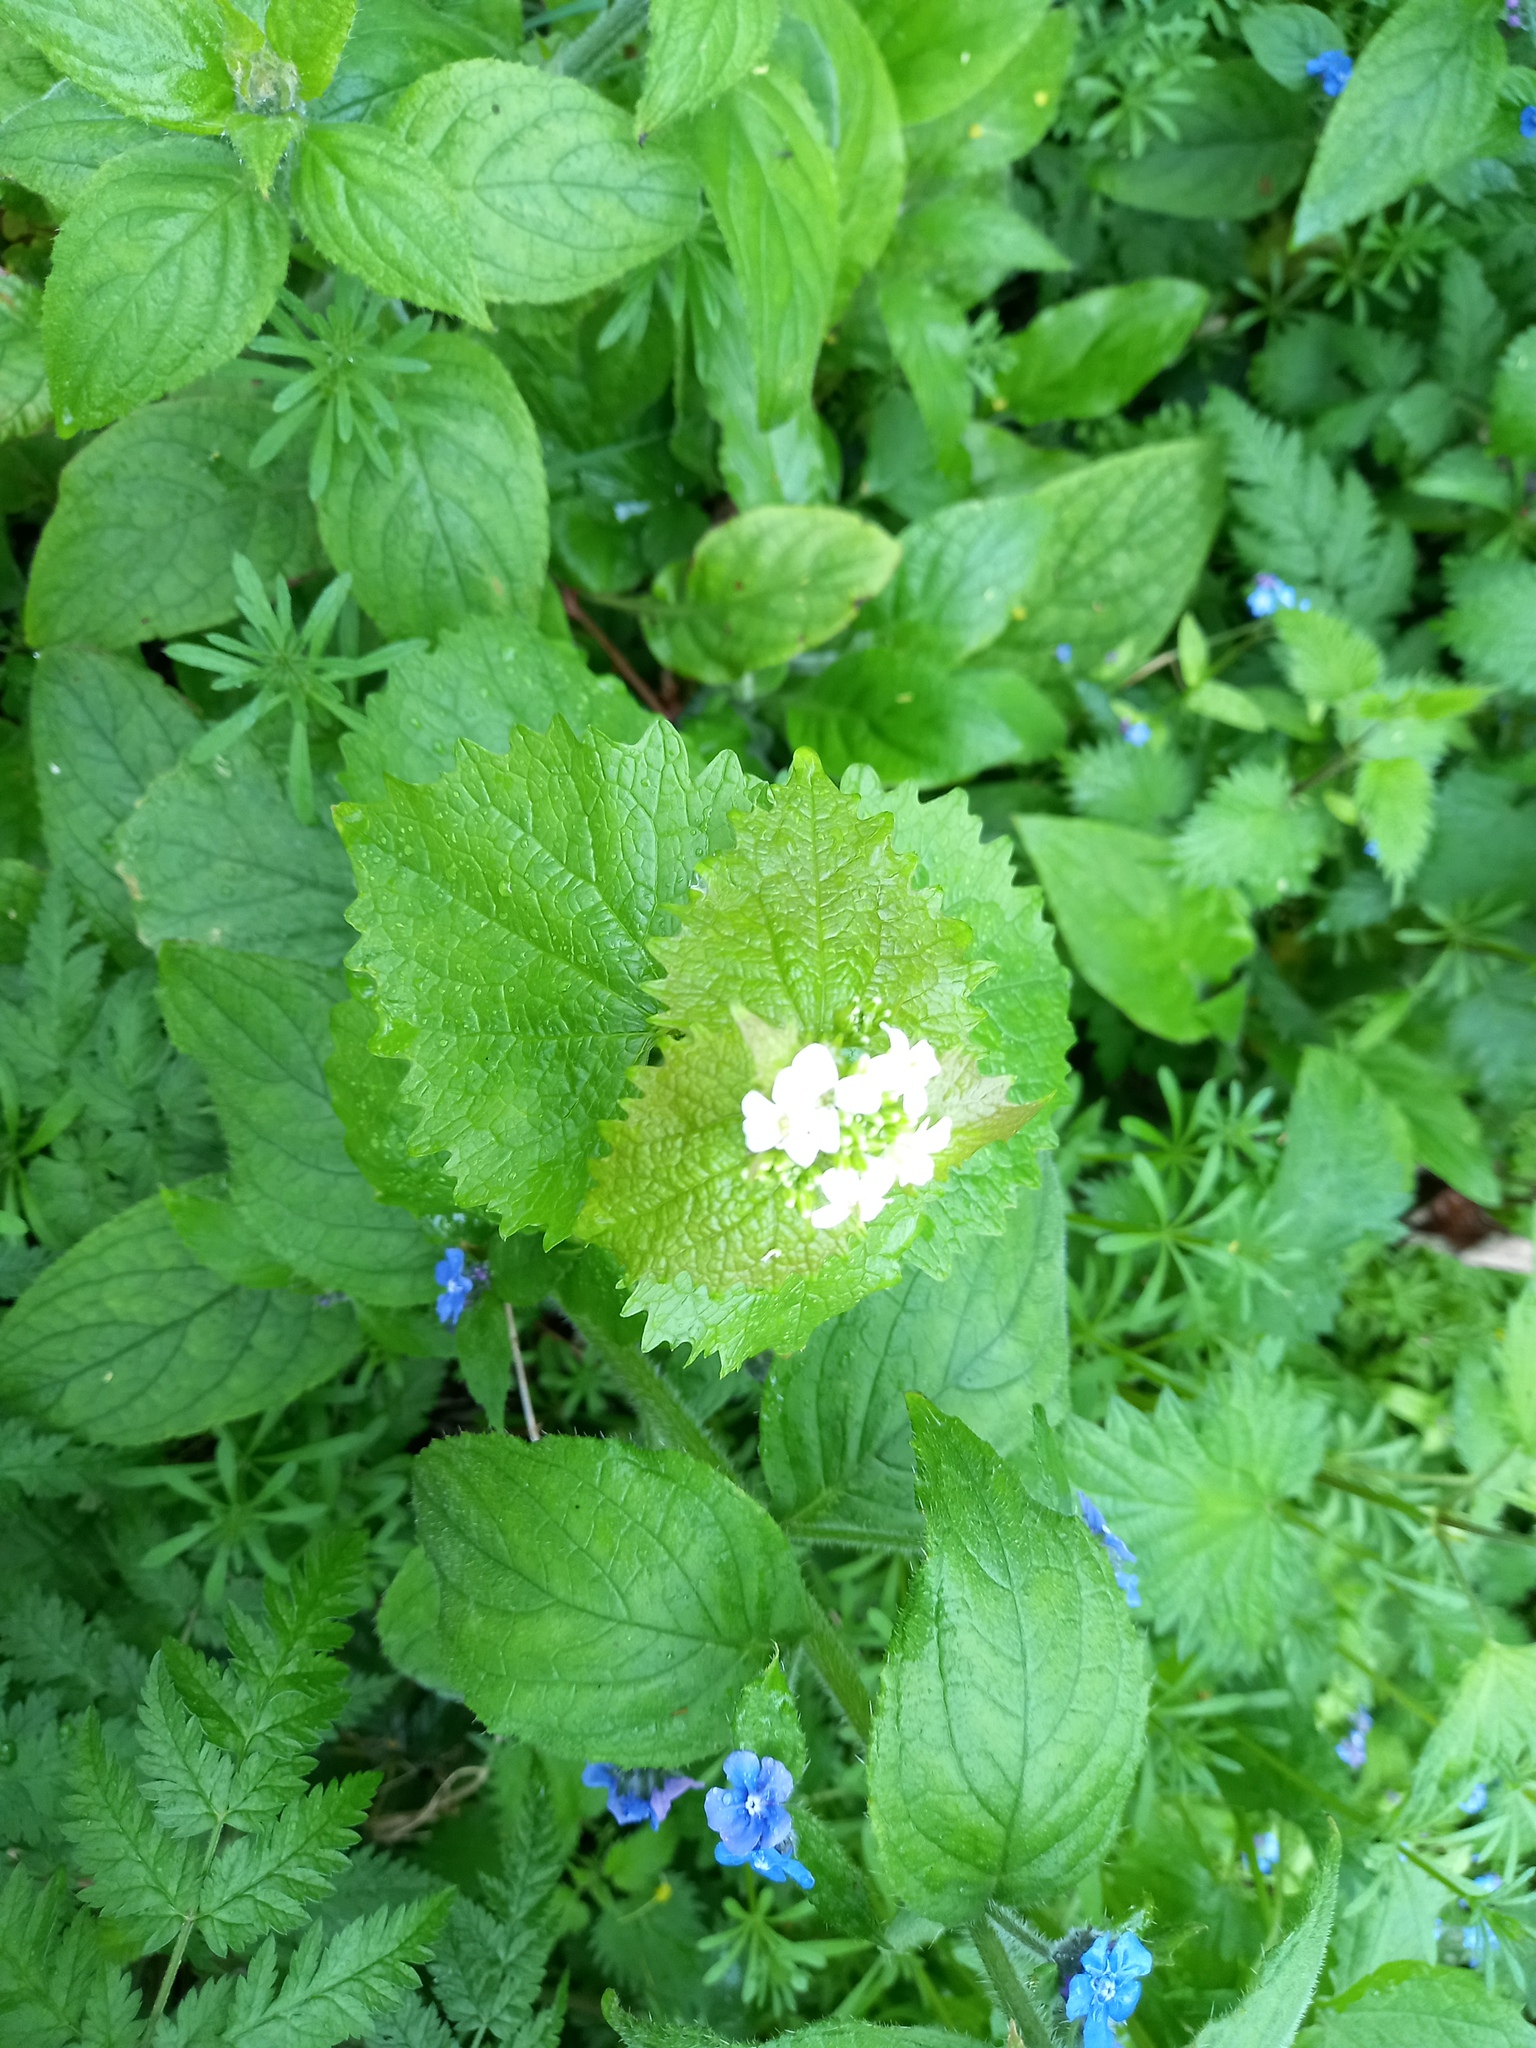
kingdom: Plantae
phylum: Tracheophyta
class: Magnoliopsida
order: Brassicales
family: Brassicaceae
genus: Alliaria
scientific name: Alliaria petiolata
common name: Garlic mustard
